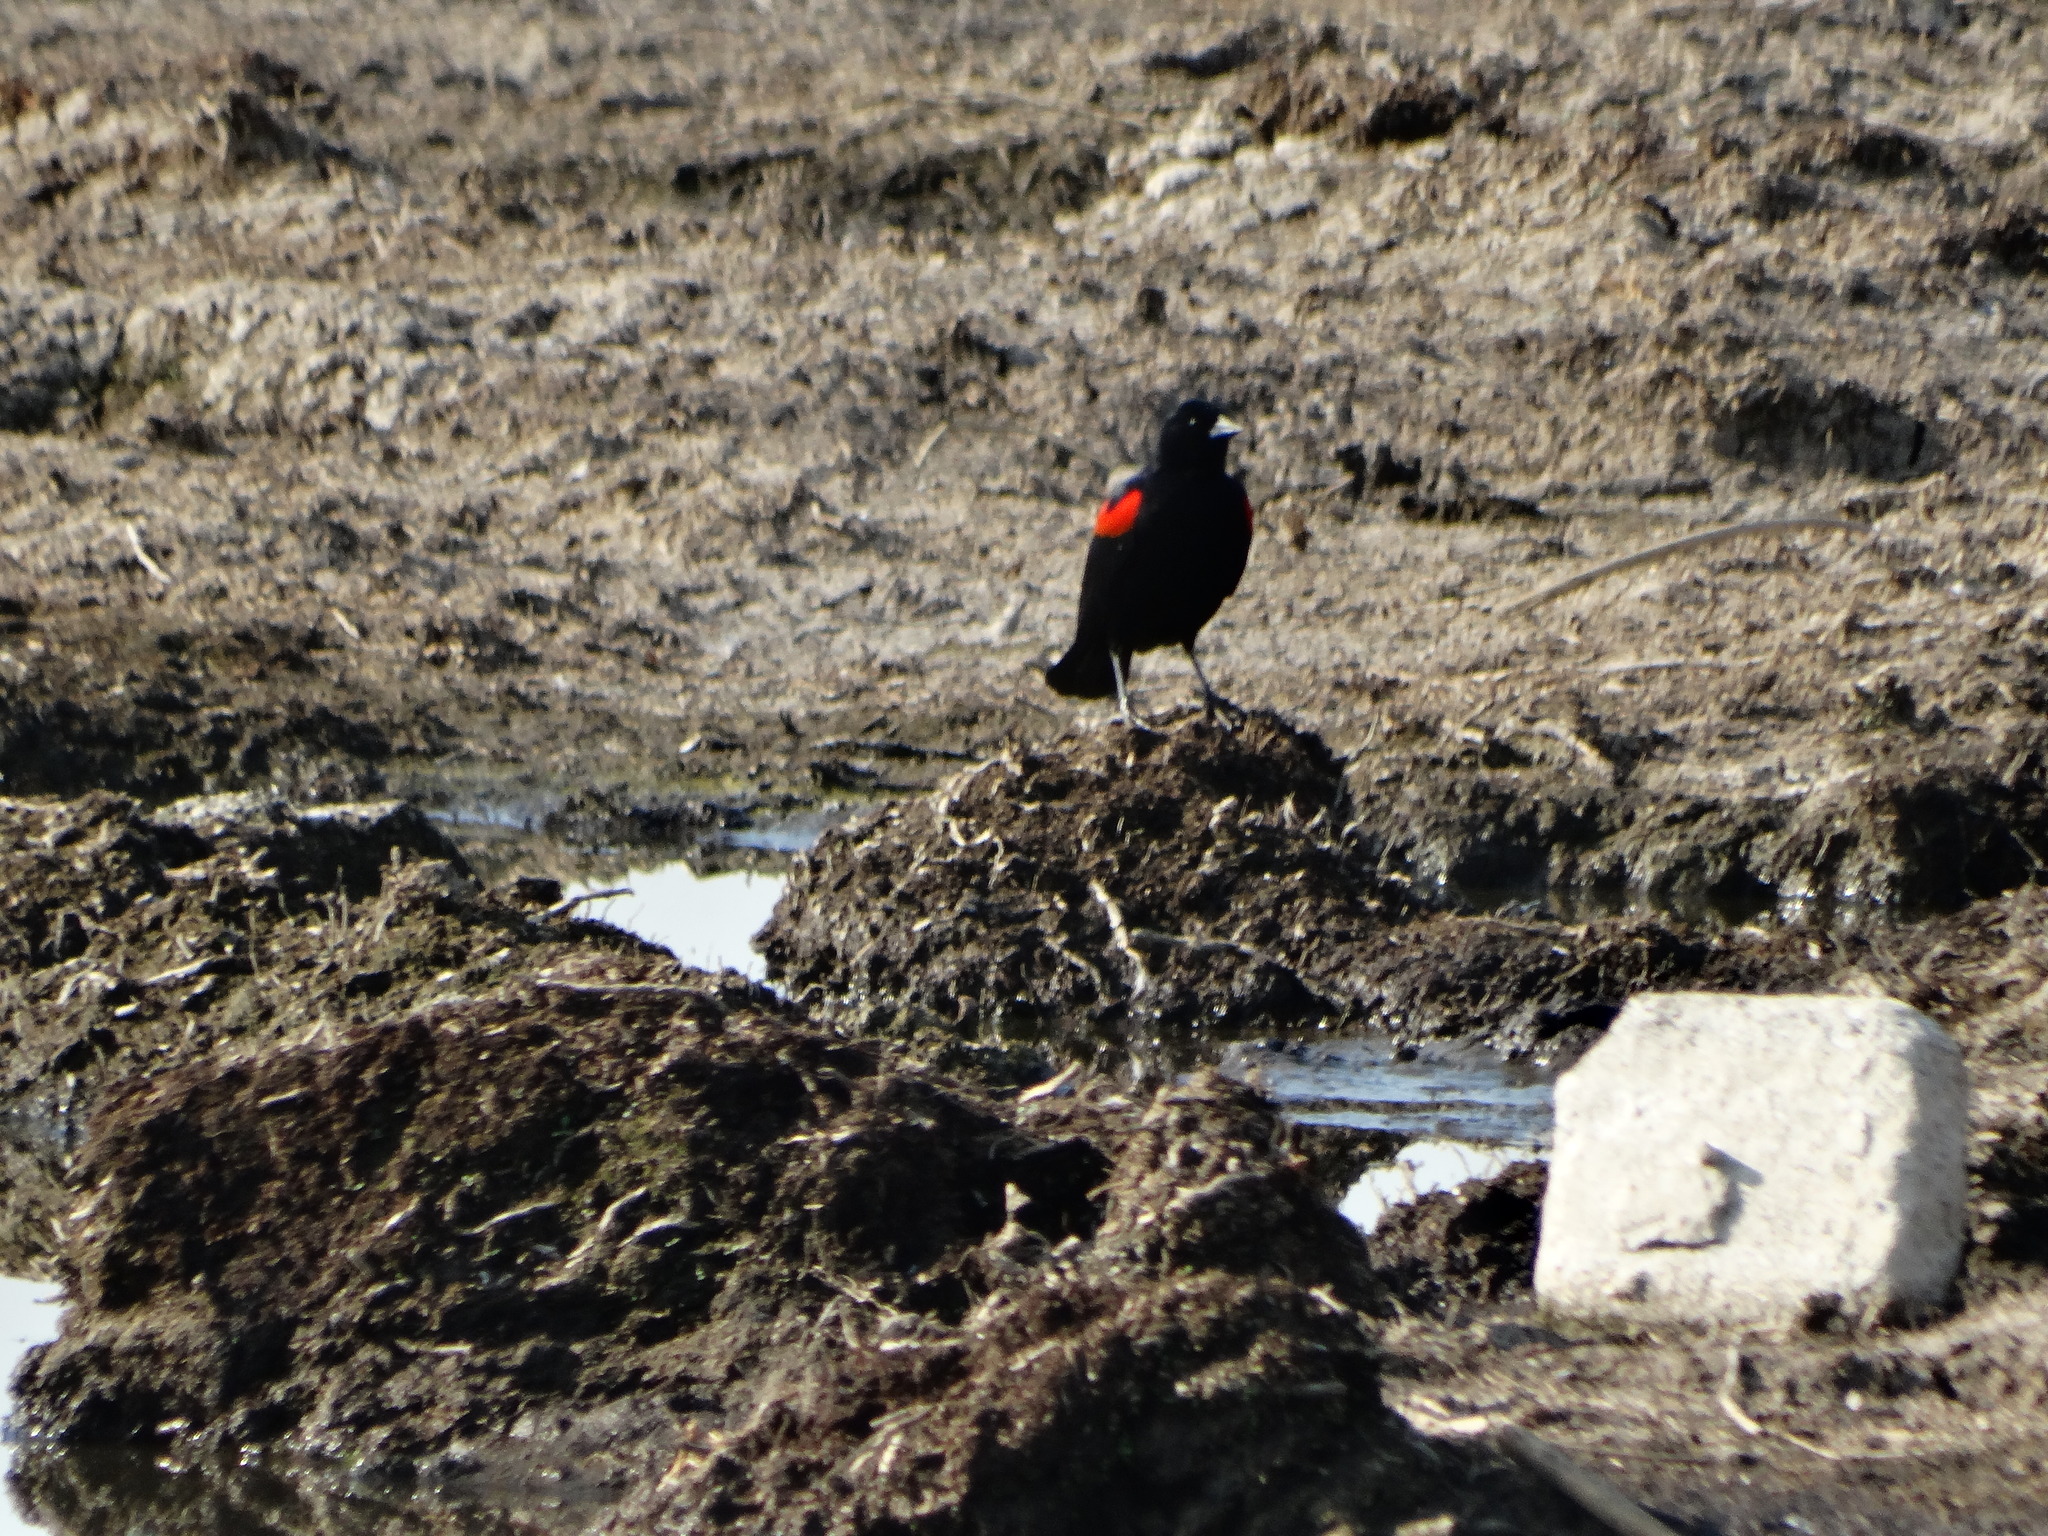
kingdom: Animalia
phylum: Chordata
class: Aves
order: Passeriformes
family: Icteridae
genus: Agelaius
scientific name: Agelaius phoeniceus
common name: Red-winged blackbird
